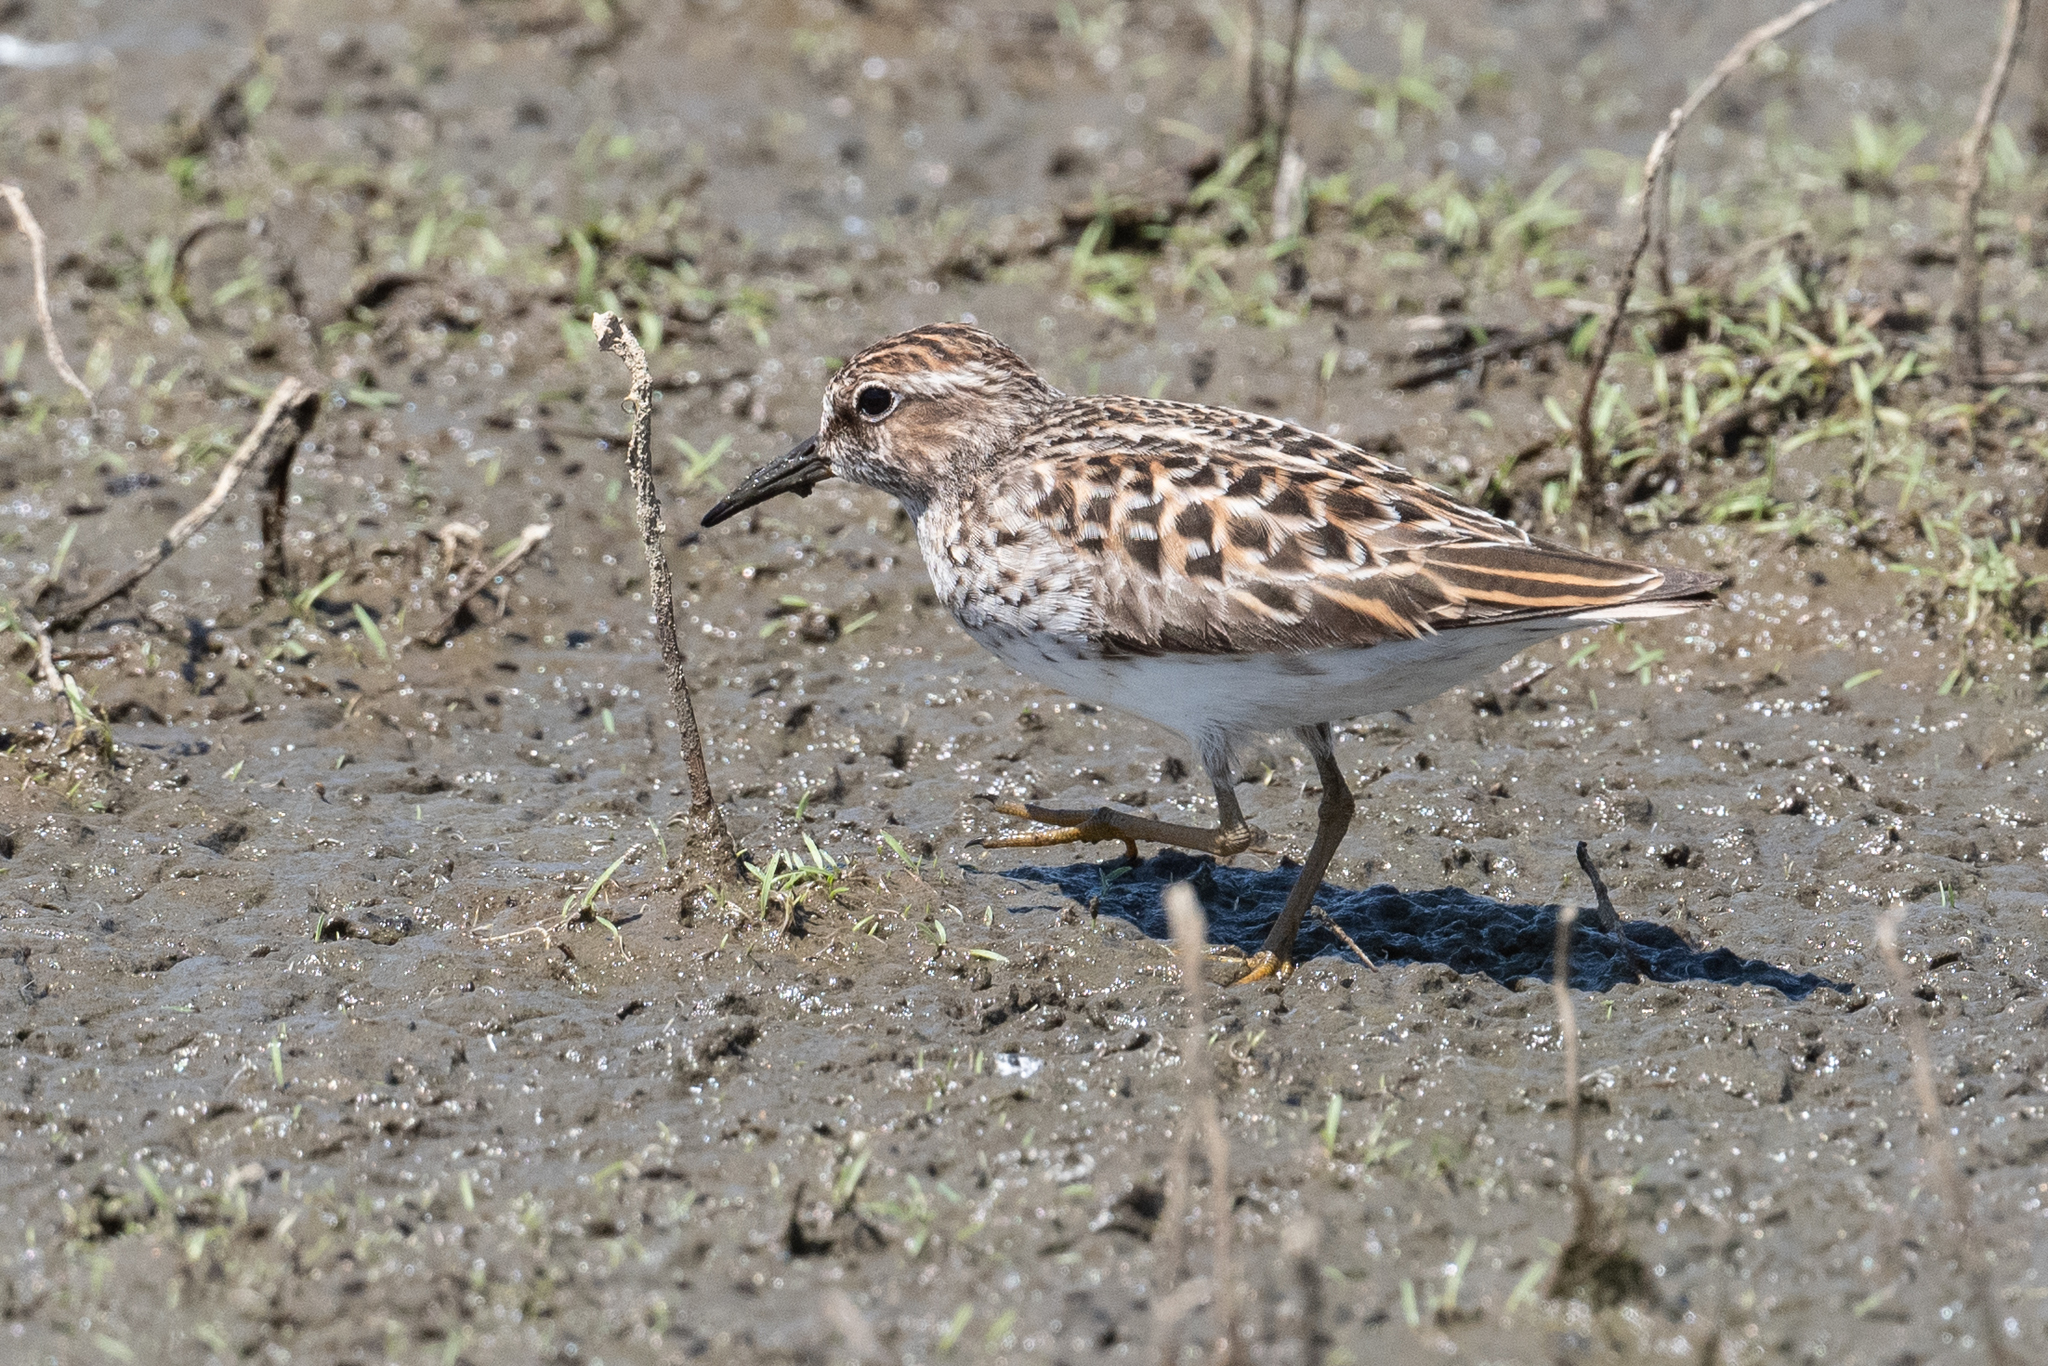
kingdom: Animalia
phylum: Chordata
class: Aves
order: Charadriiformes
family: Scolopacidae
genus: Calidris
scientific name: Calidris minutilla
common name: Least sandpiper
